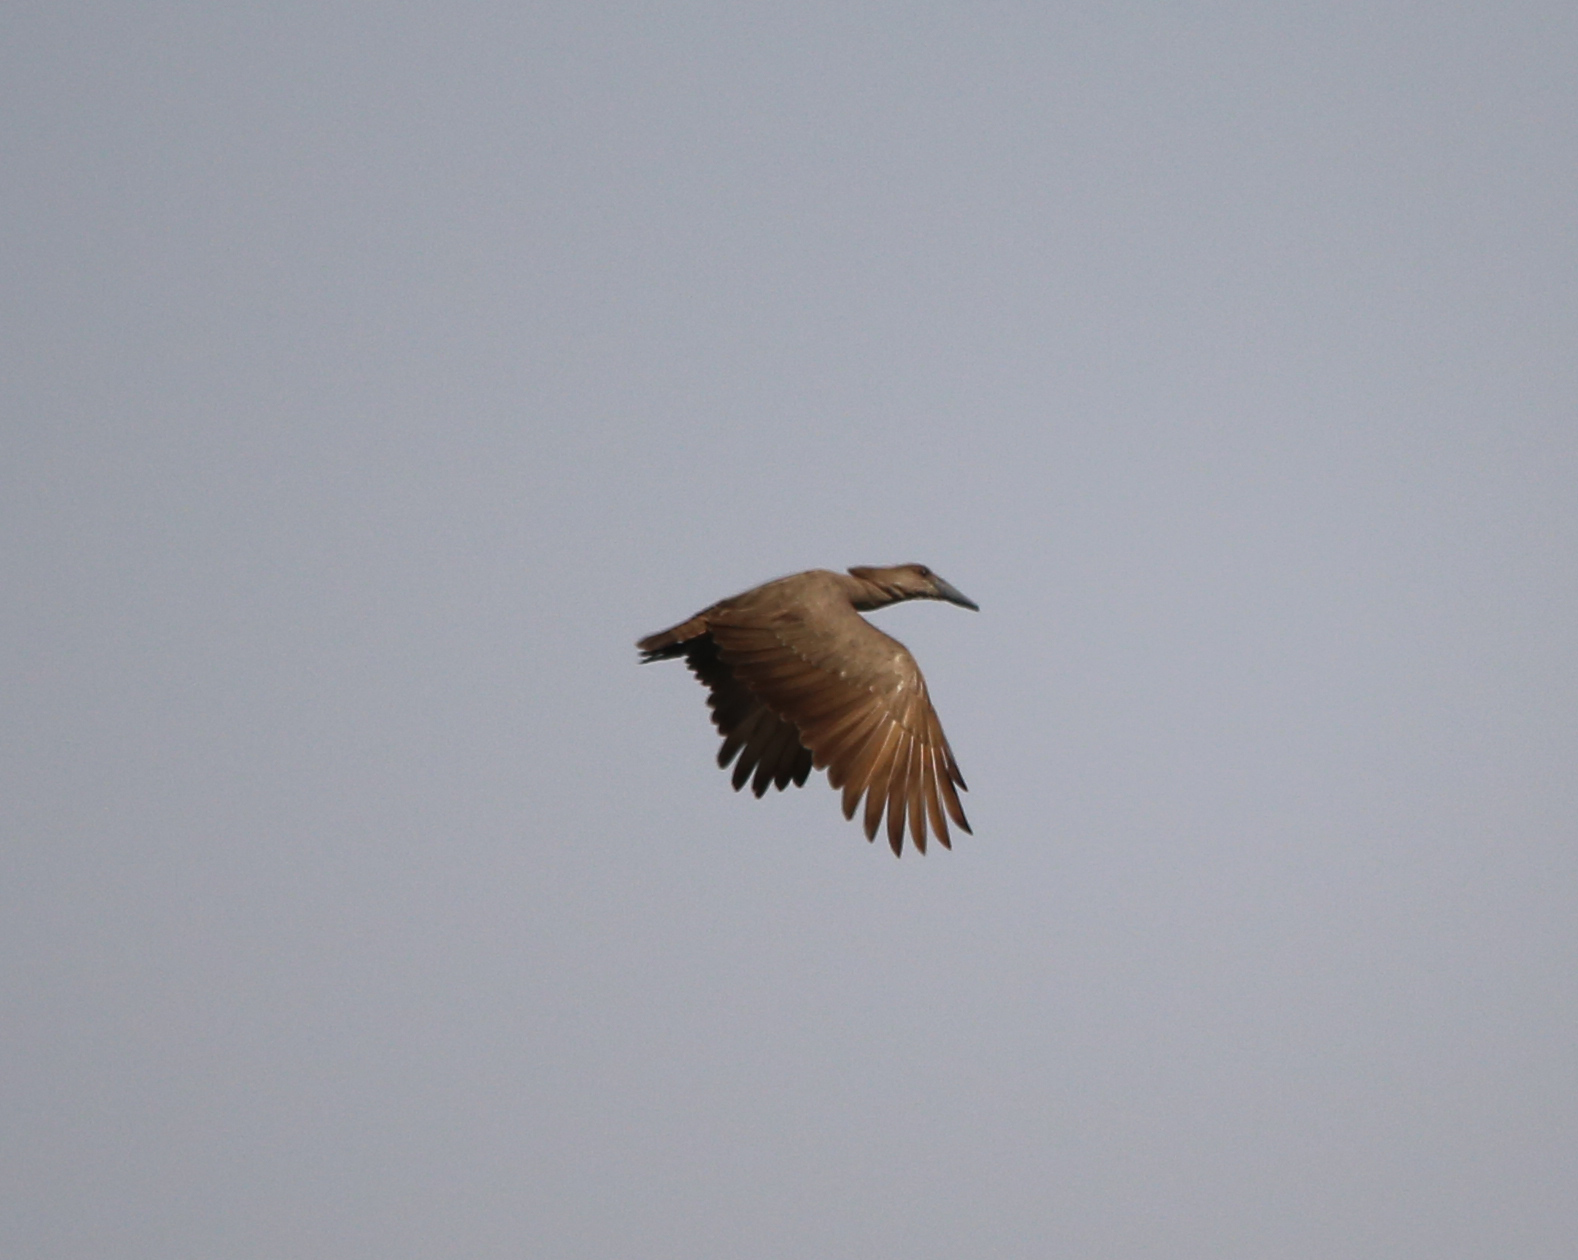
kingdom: Animalia
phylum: Chordata
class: Aves
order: Pelecaniformes
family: Scopidae
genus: Scopus
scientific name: Scopus umbretta
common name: Hamerkop
